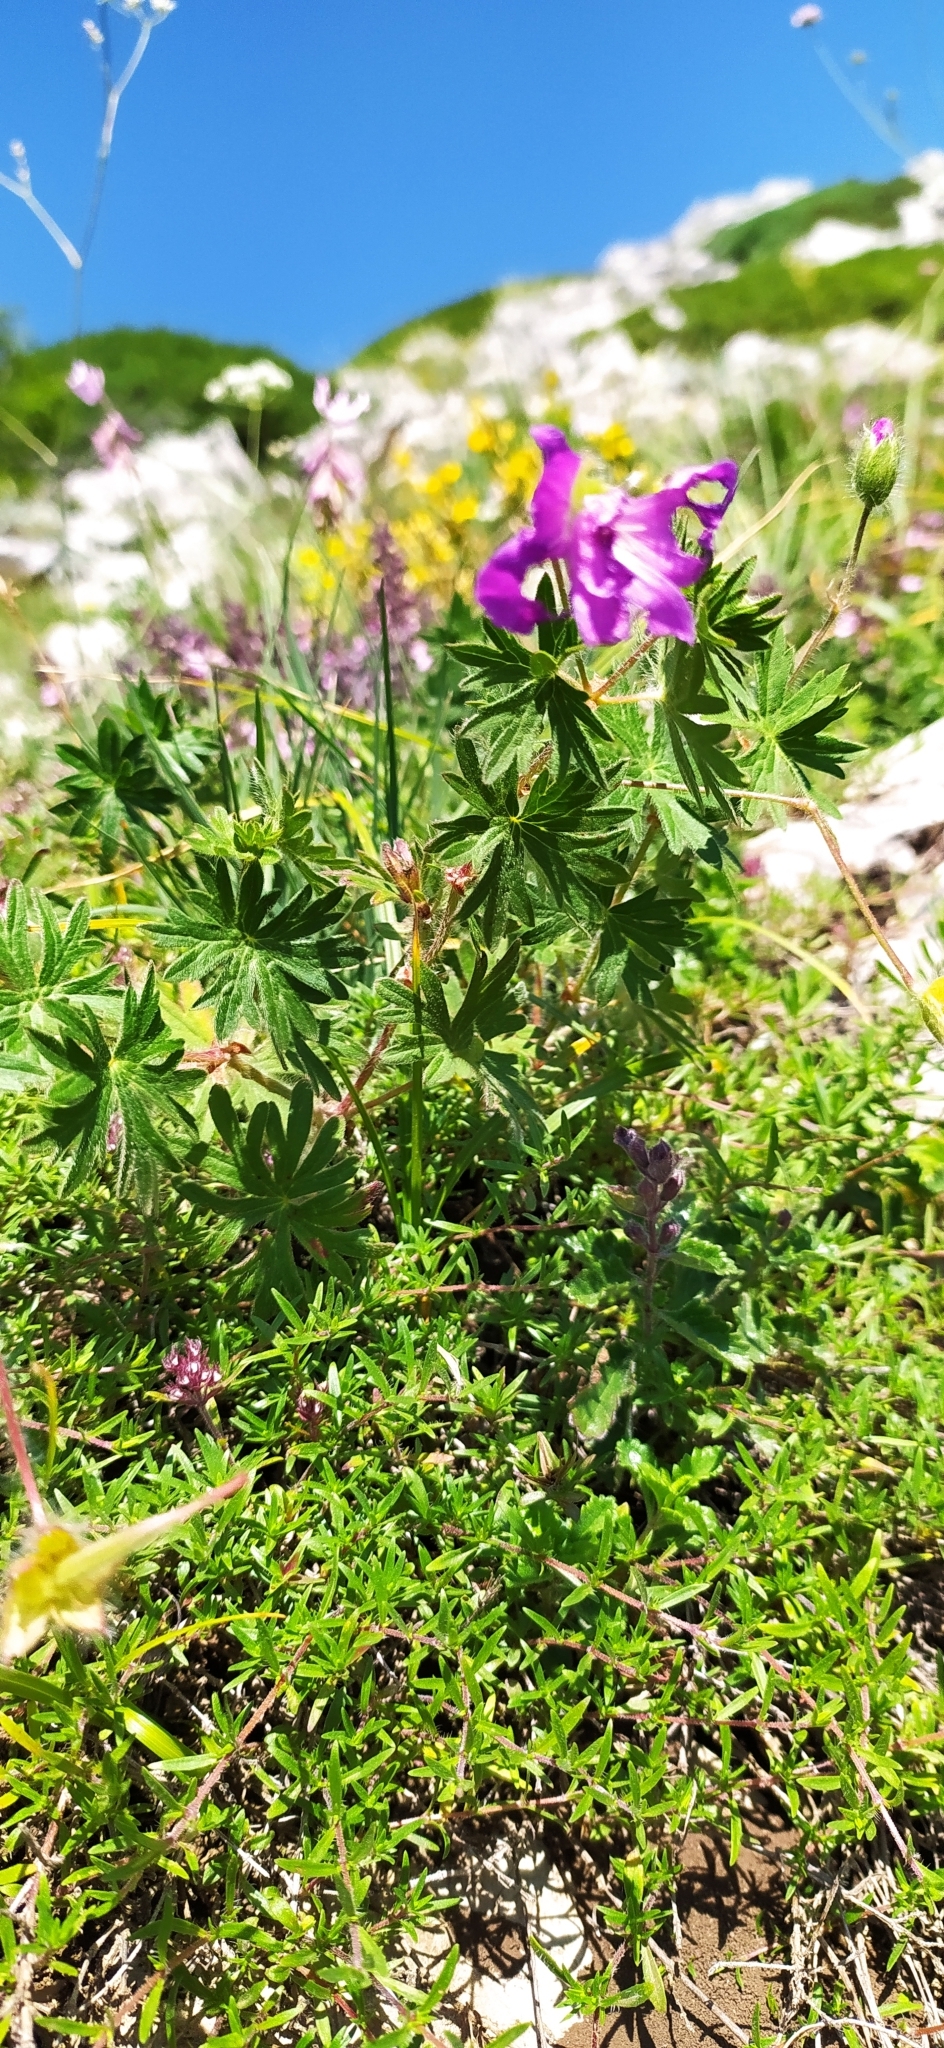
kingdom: Plantae
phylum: Tracheophyta
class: Magnoliopsida
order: Geraniales
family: Geraniaceae
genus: Geranium
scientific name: Geranium sanguineum
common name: Bloody crane's-bill
